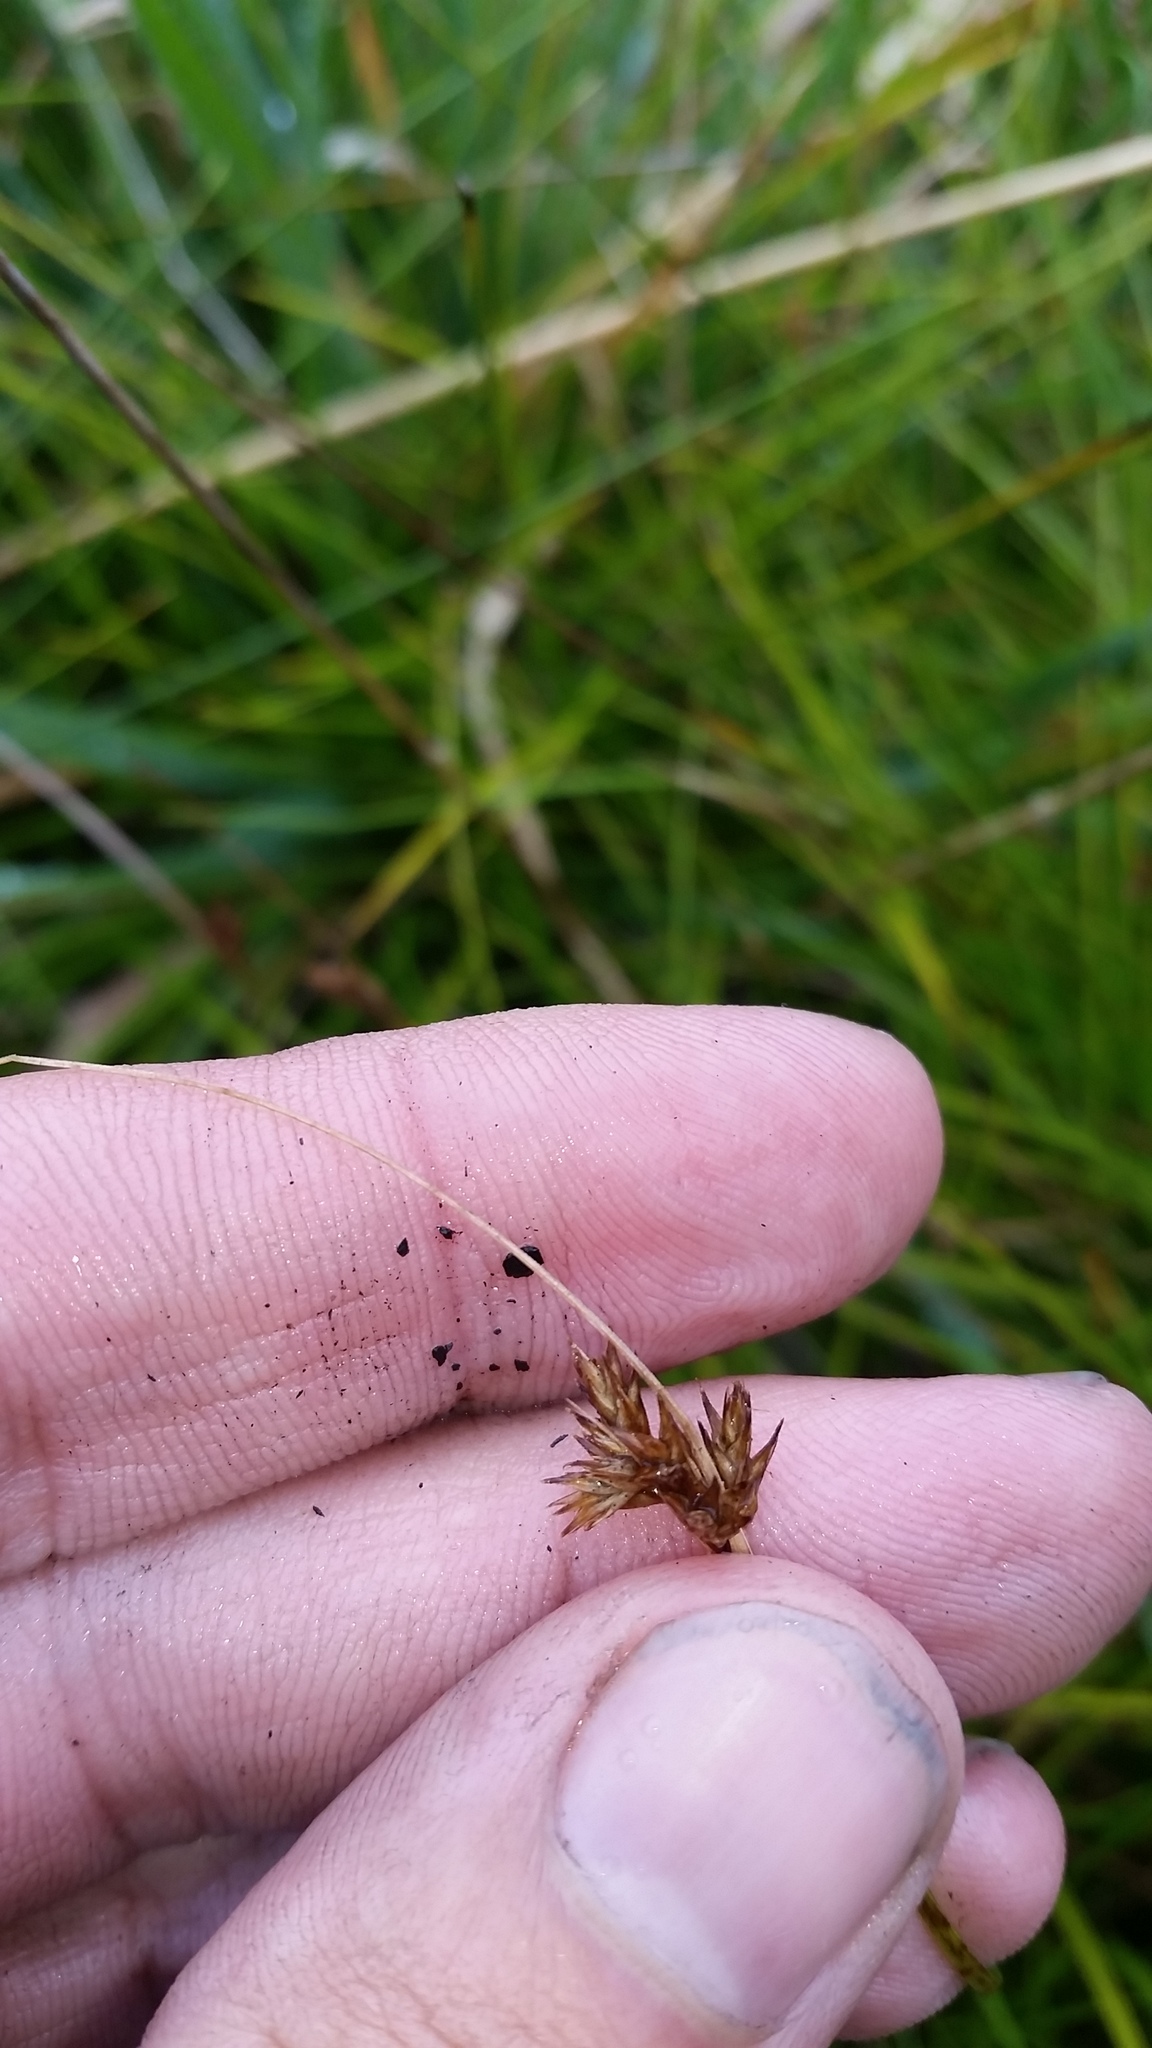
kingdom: Plantae
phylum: Tracheophyta
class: Liliopsida
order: Poales
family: Cyperaceae
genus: Carex
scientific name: Carex subfusca
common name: Brown sedge
